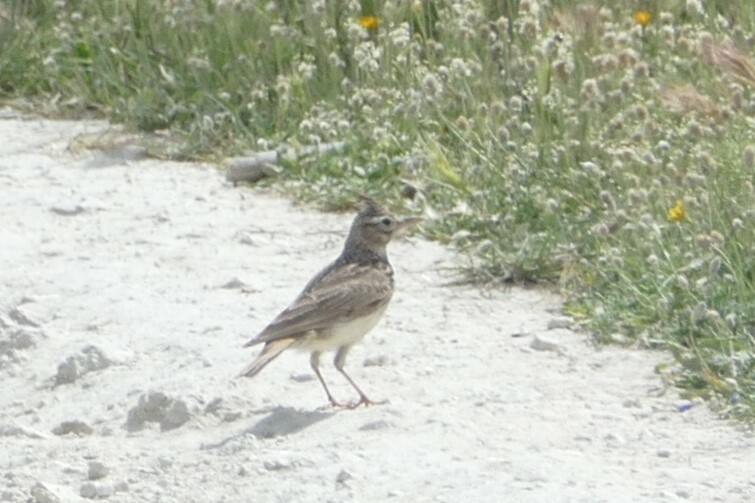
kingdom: Animalia
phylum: Chordata
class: Aves
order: Passeriformes
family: Alaudidae
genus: Galerida
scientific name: Galerida cristata
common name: Crested lark
